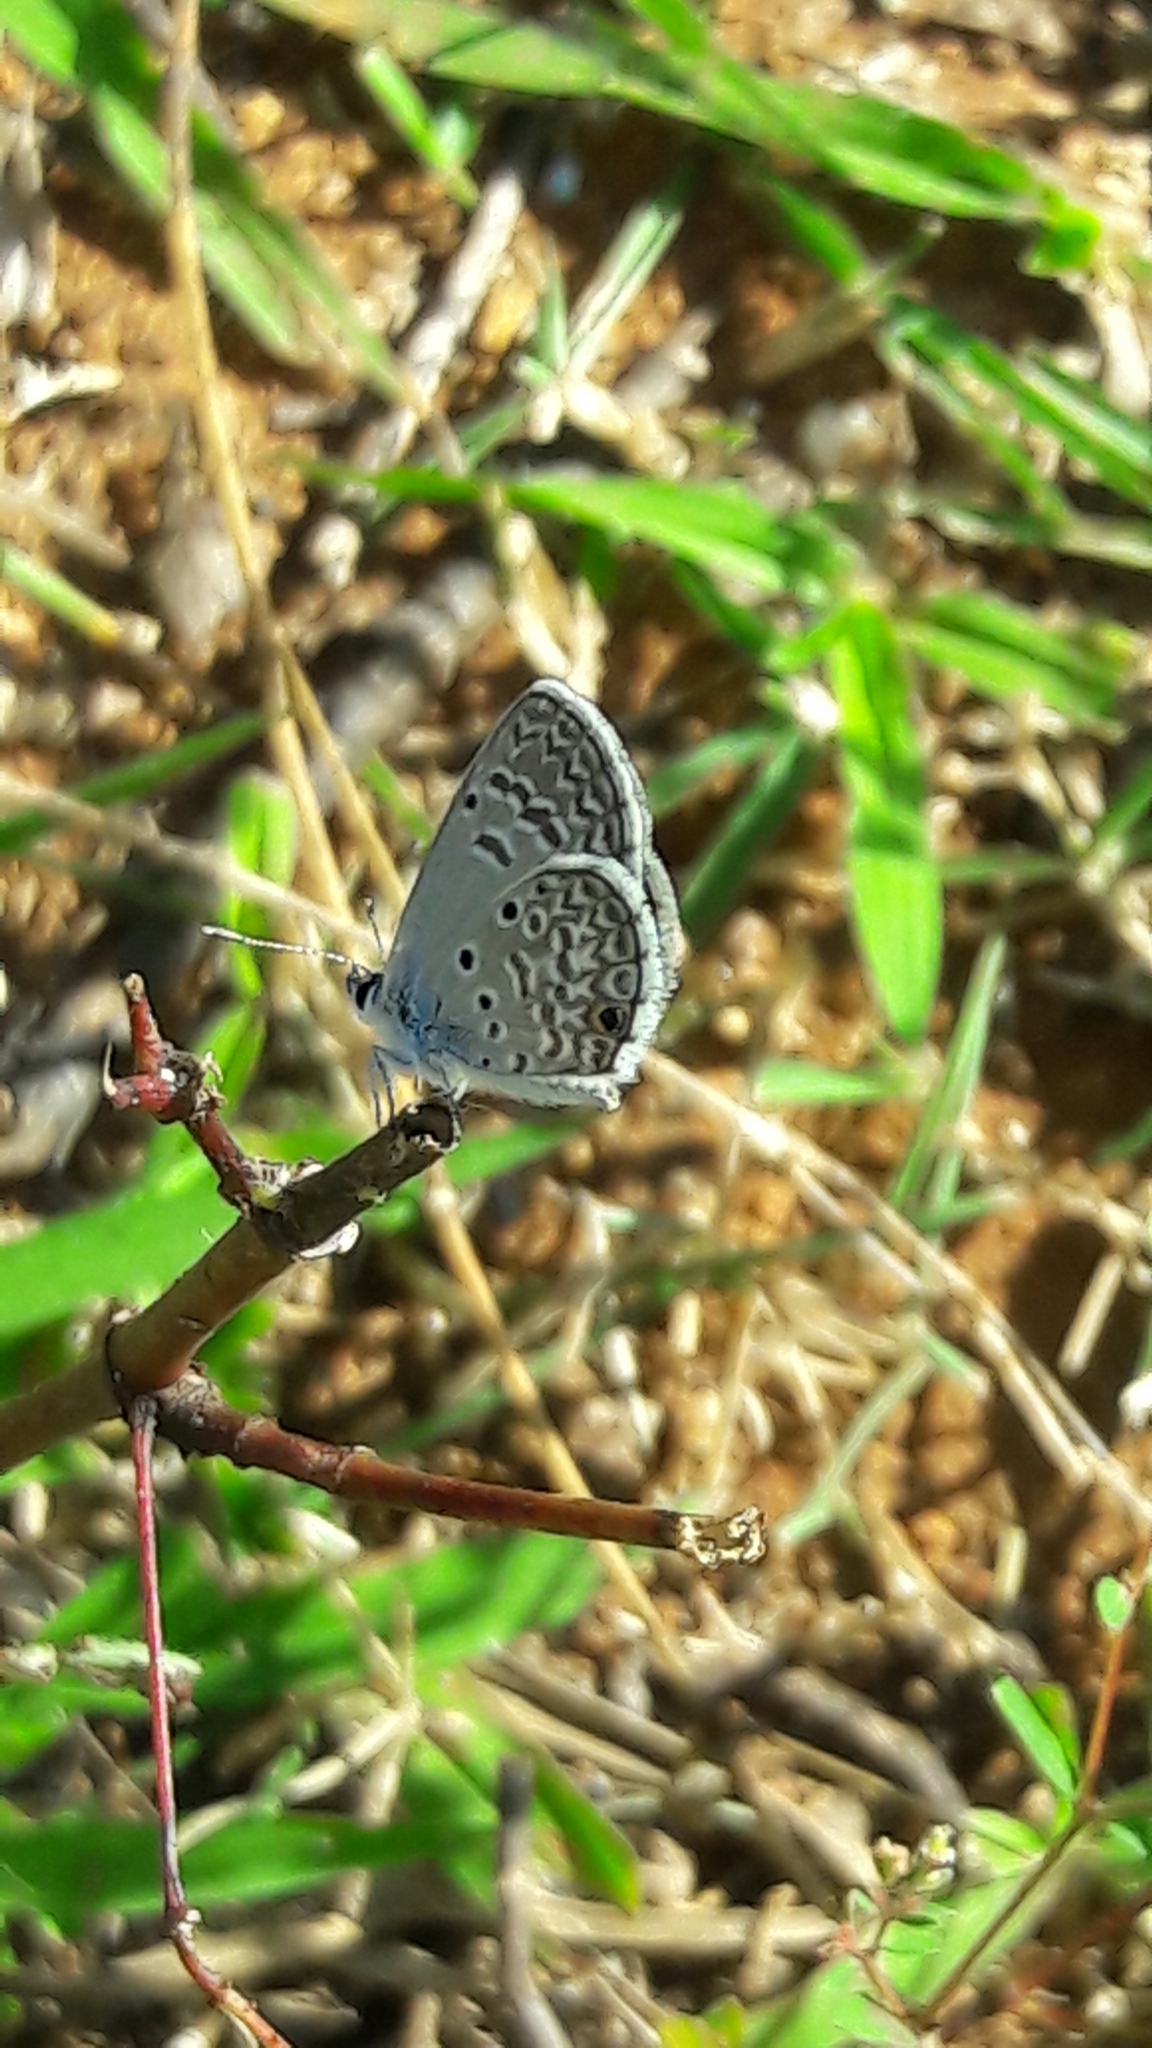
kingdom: Animalia
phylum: Arthropoda
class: Insecta
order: Lepidoptera
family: Lycaenidae
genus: Leptotes
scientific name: Leptotes cassius
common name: Cassius blue
